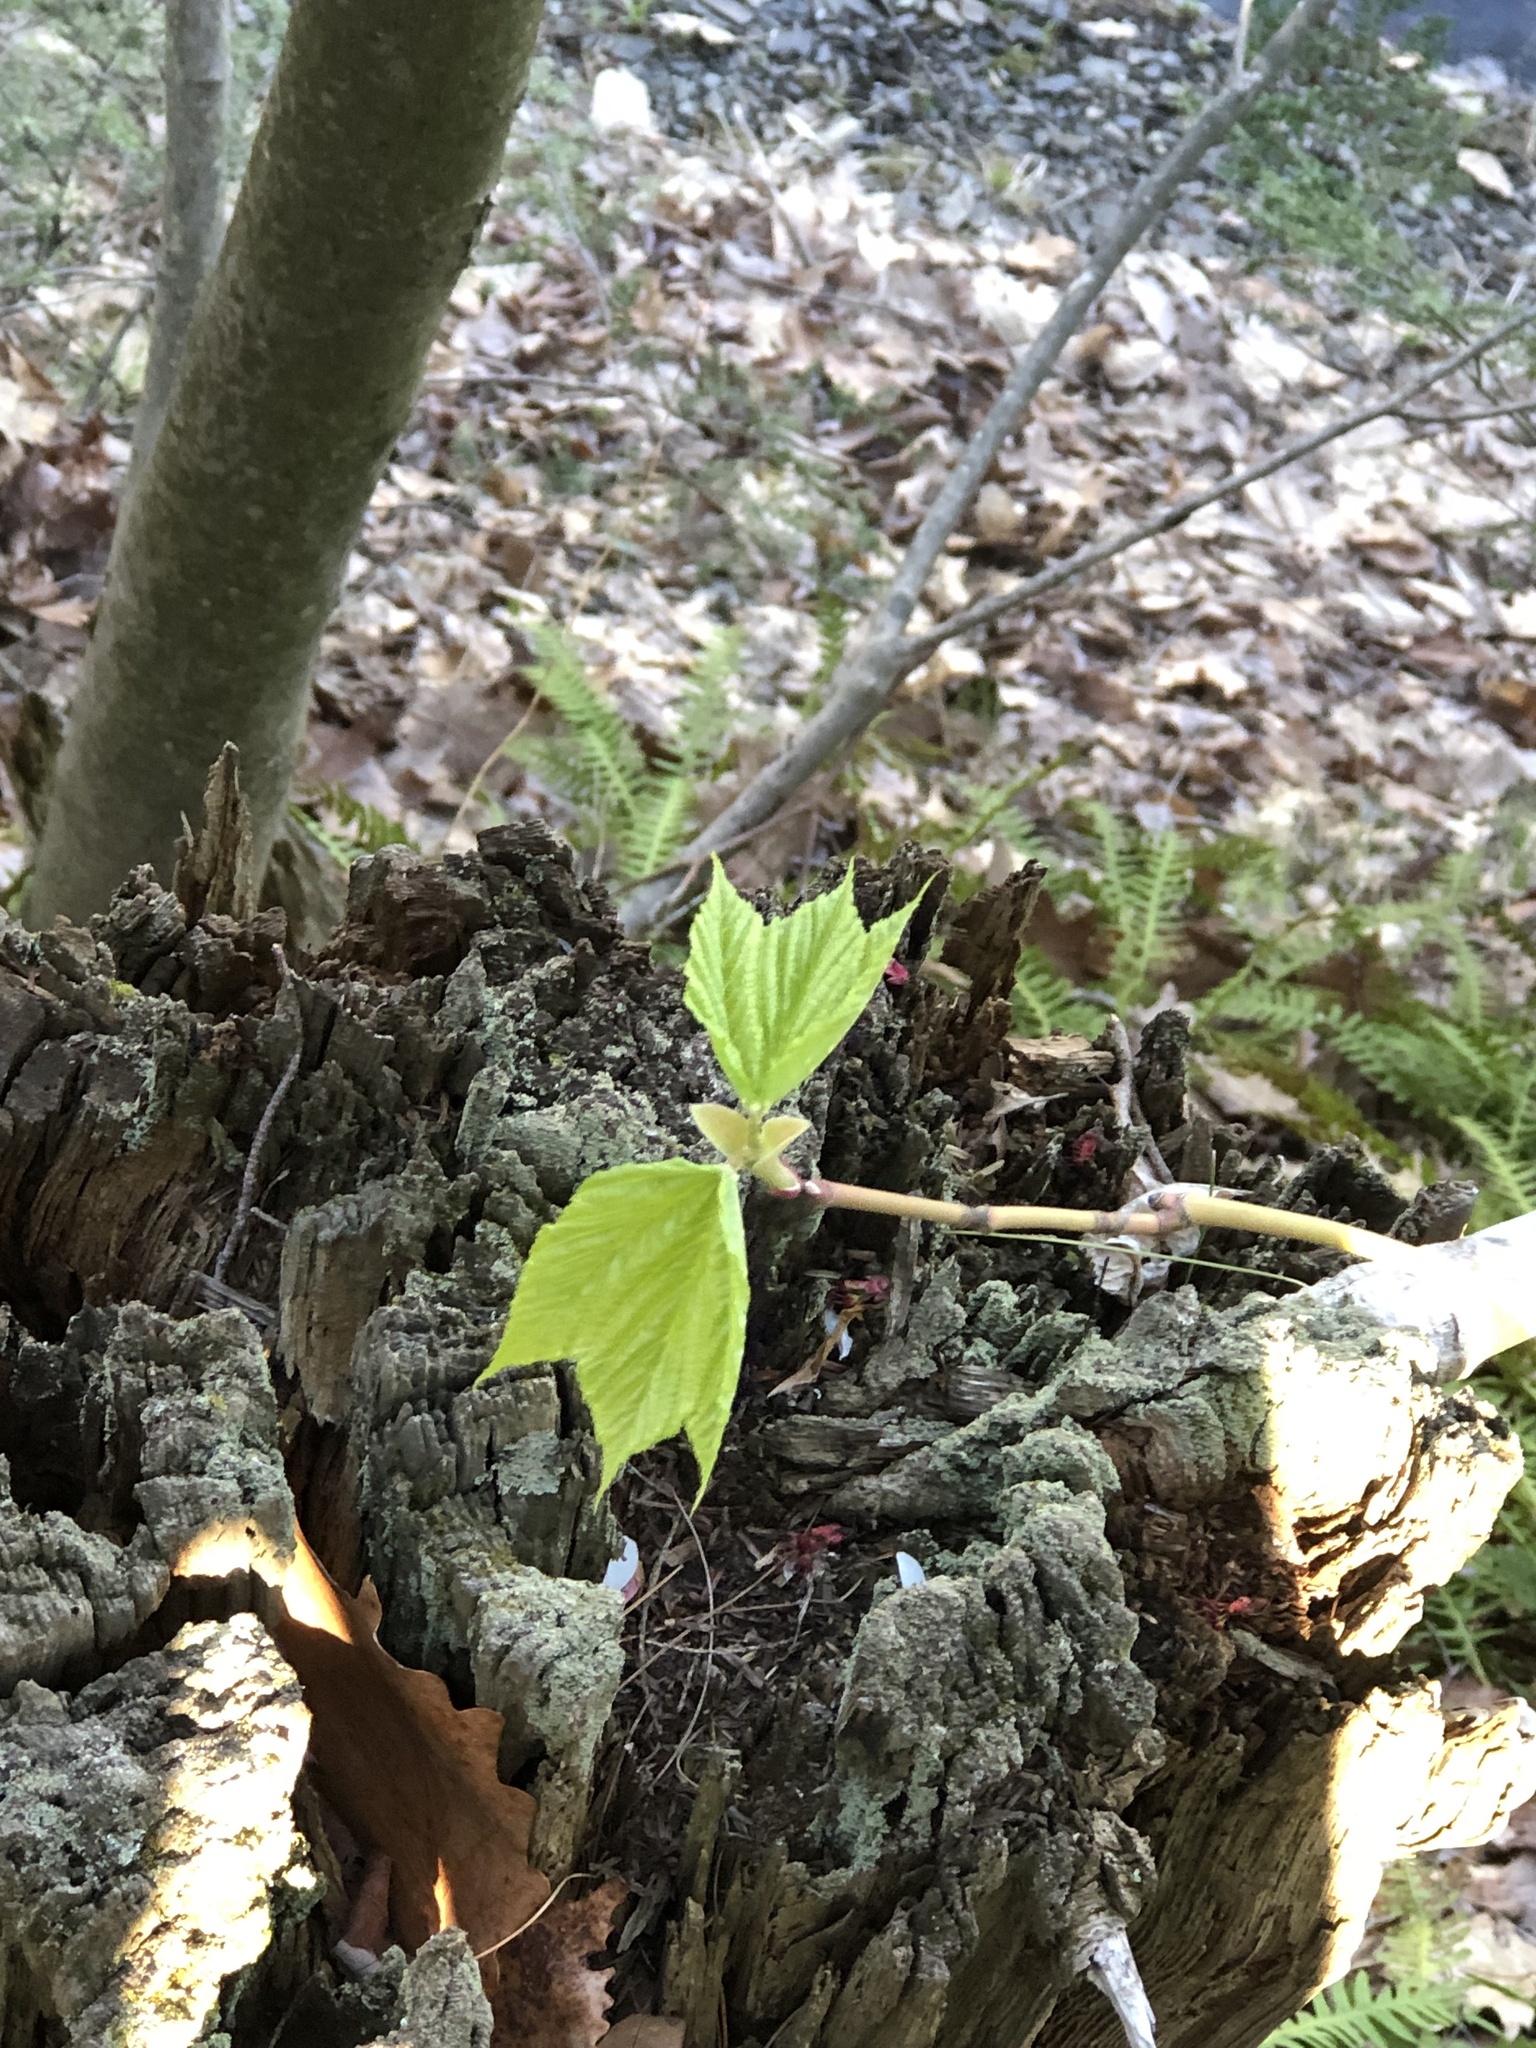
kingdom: Plantae
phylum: Tracheophyta
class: Magnoliopsida
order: Sapindales
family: Sapindaceae
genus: Acer
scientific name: Acer pensylvanicum
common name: Moosewood
